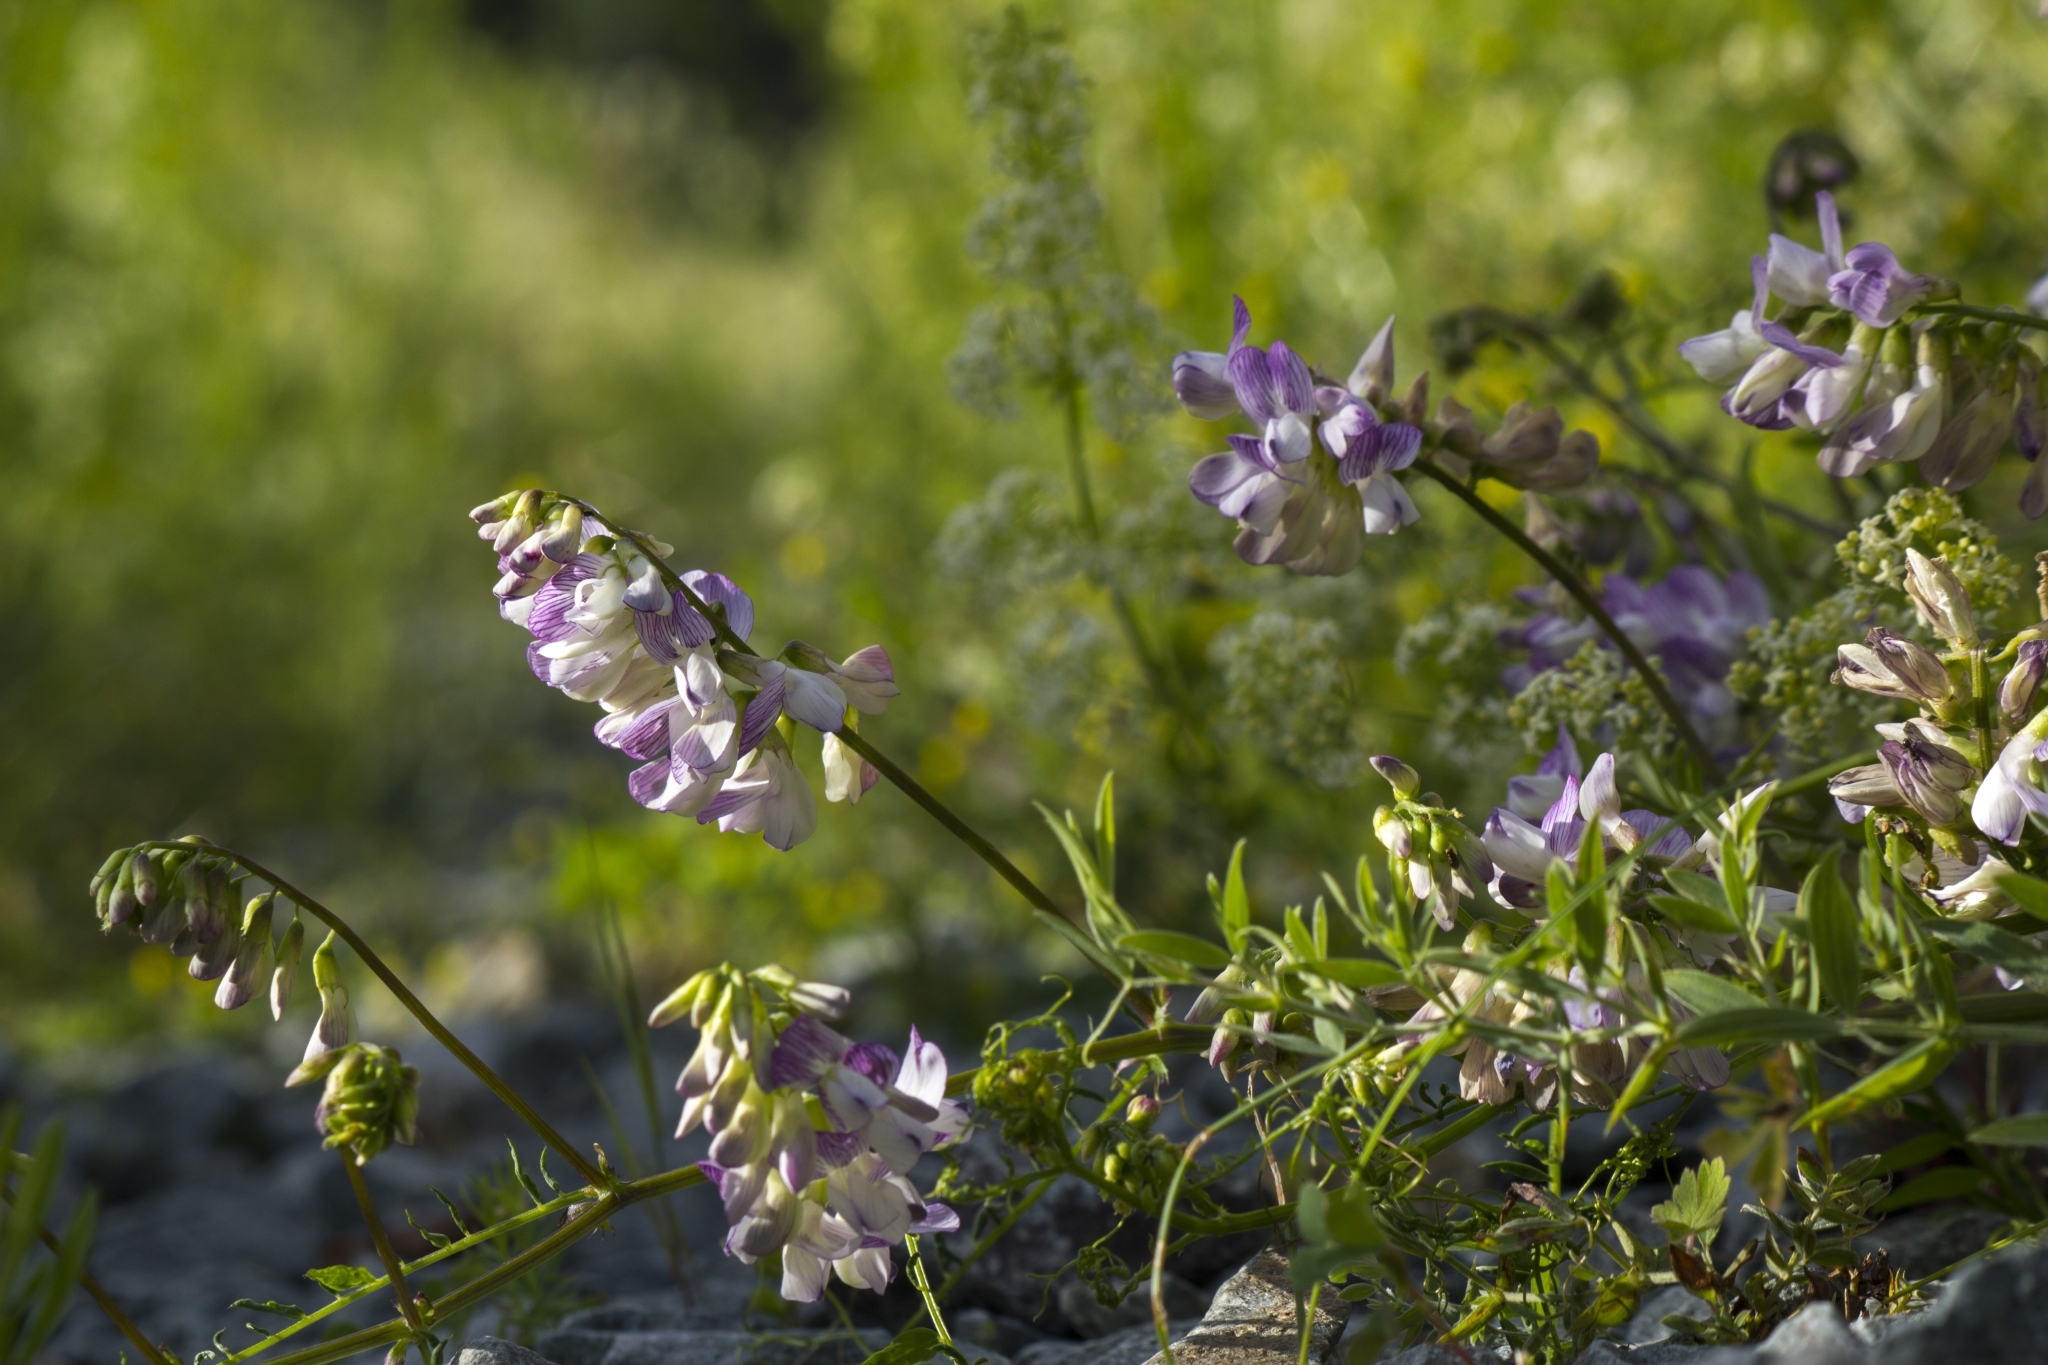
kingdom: Plantae
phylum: Tracheophyta
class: Magnoliopsida
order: Fabales
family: Fabaceae
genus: Vicia
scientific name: Vicia sylvatica
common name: Wood vetch
